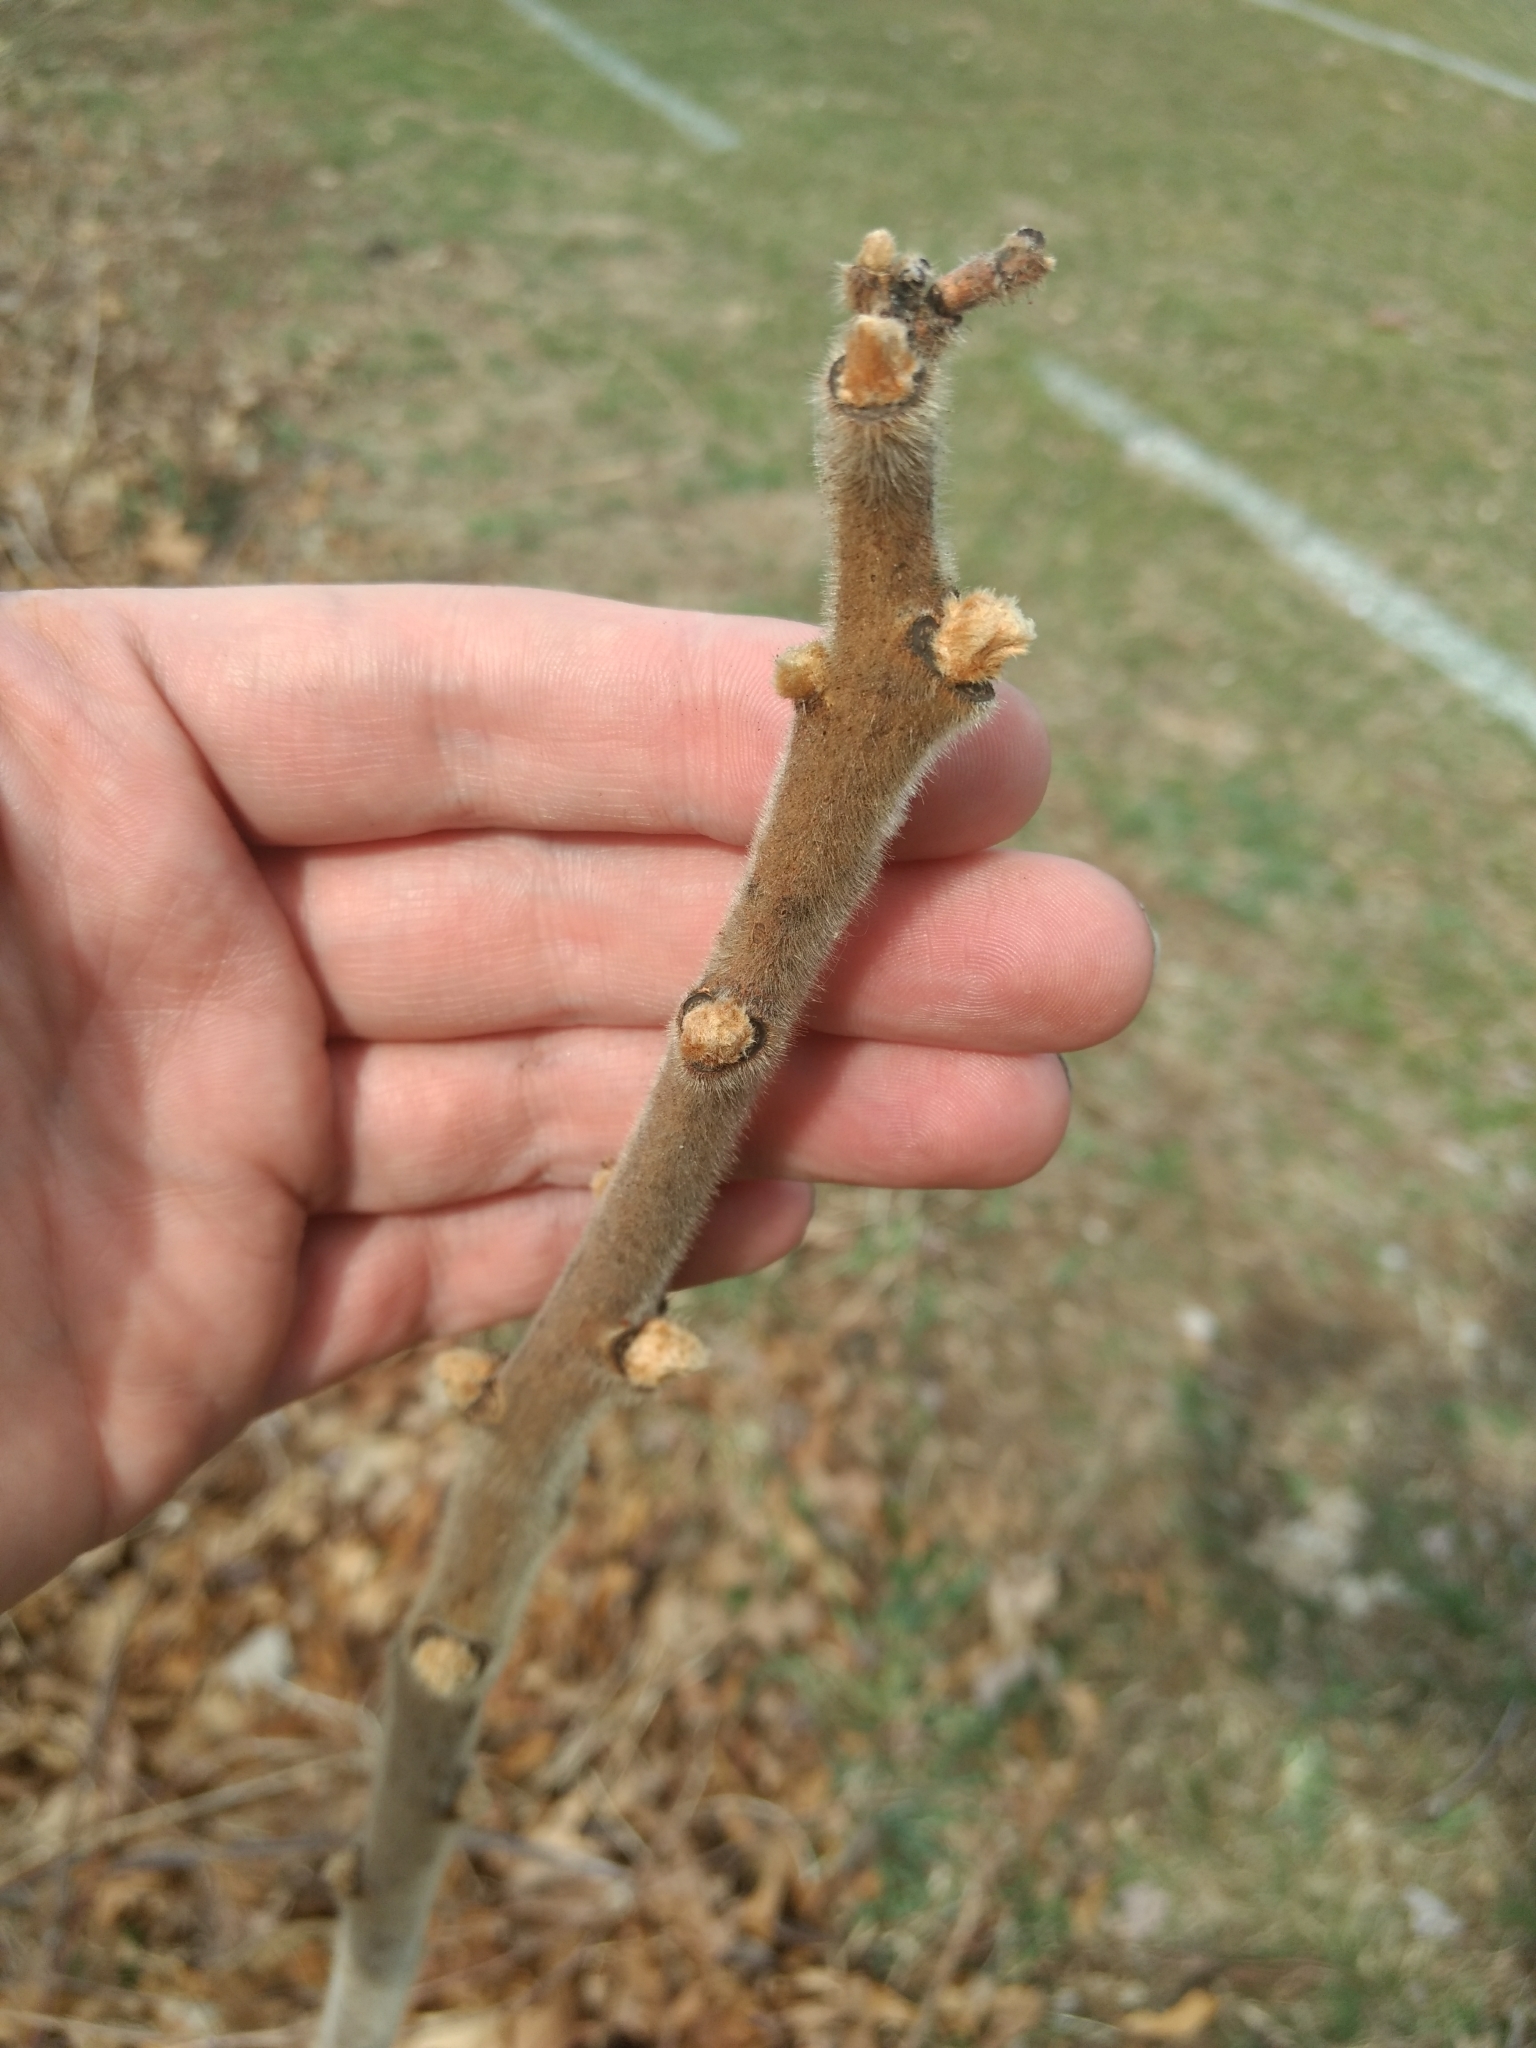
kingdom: Plantae
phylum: Tracheophyta
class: Magnoliopsida
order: Sapindales
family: Anacardiaceae
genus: Rhus
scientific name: Rhus typhina
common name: Staghorn sumac
